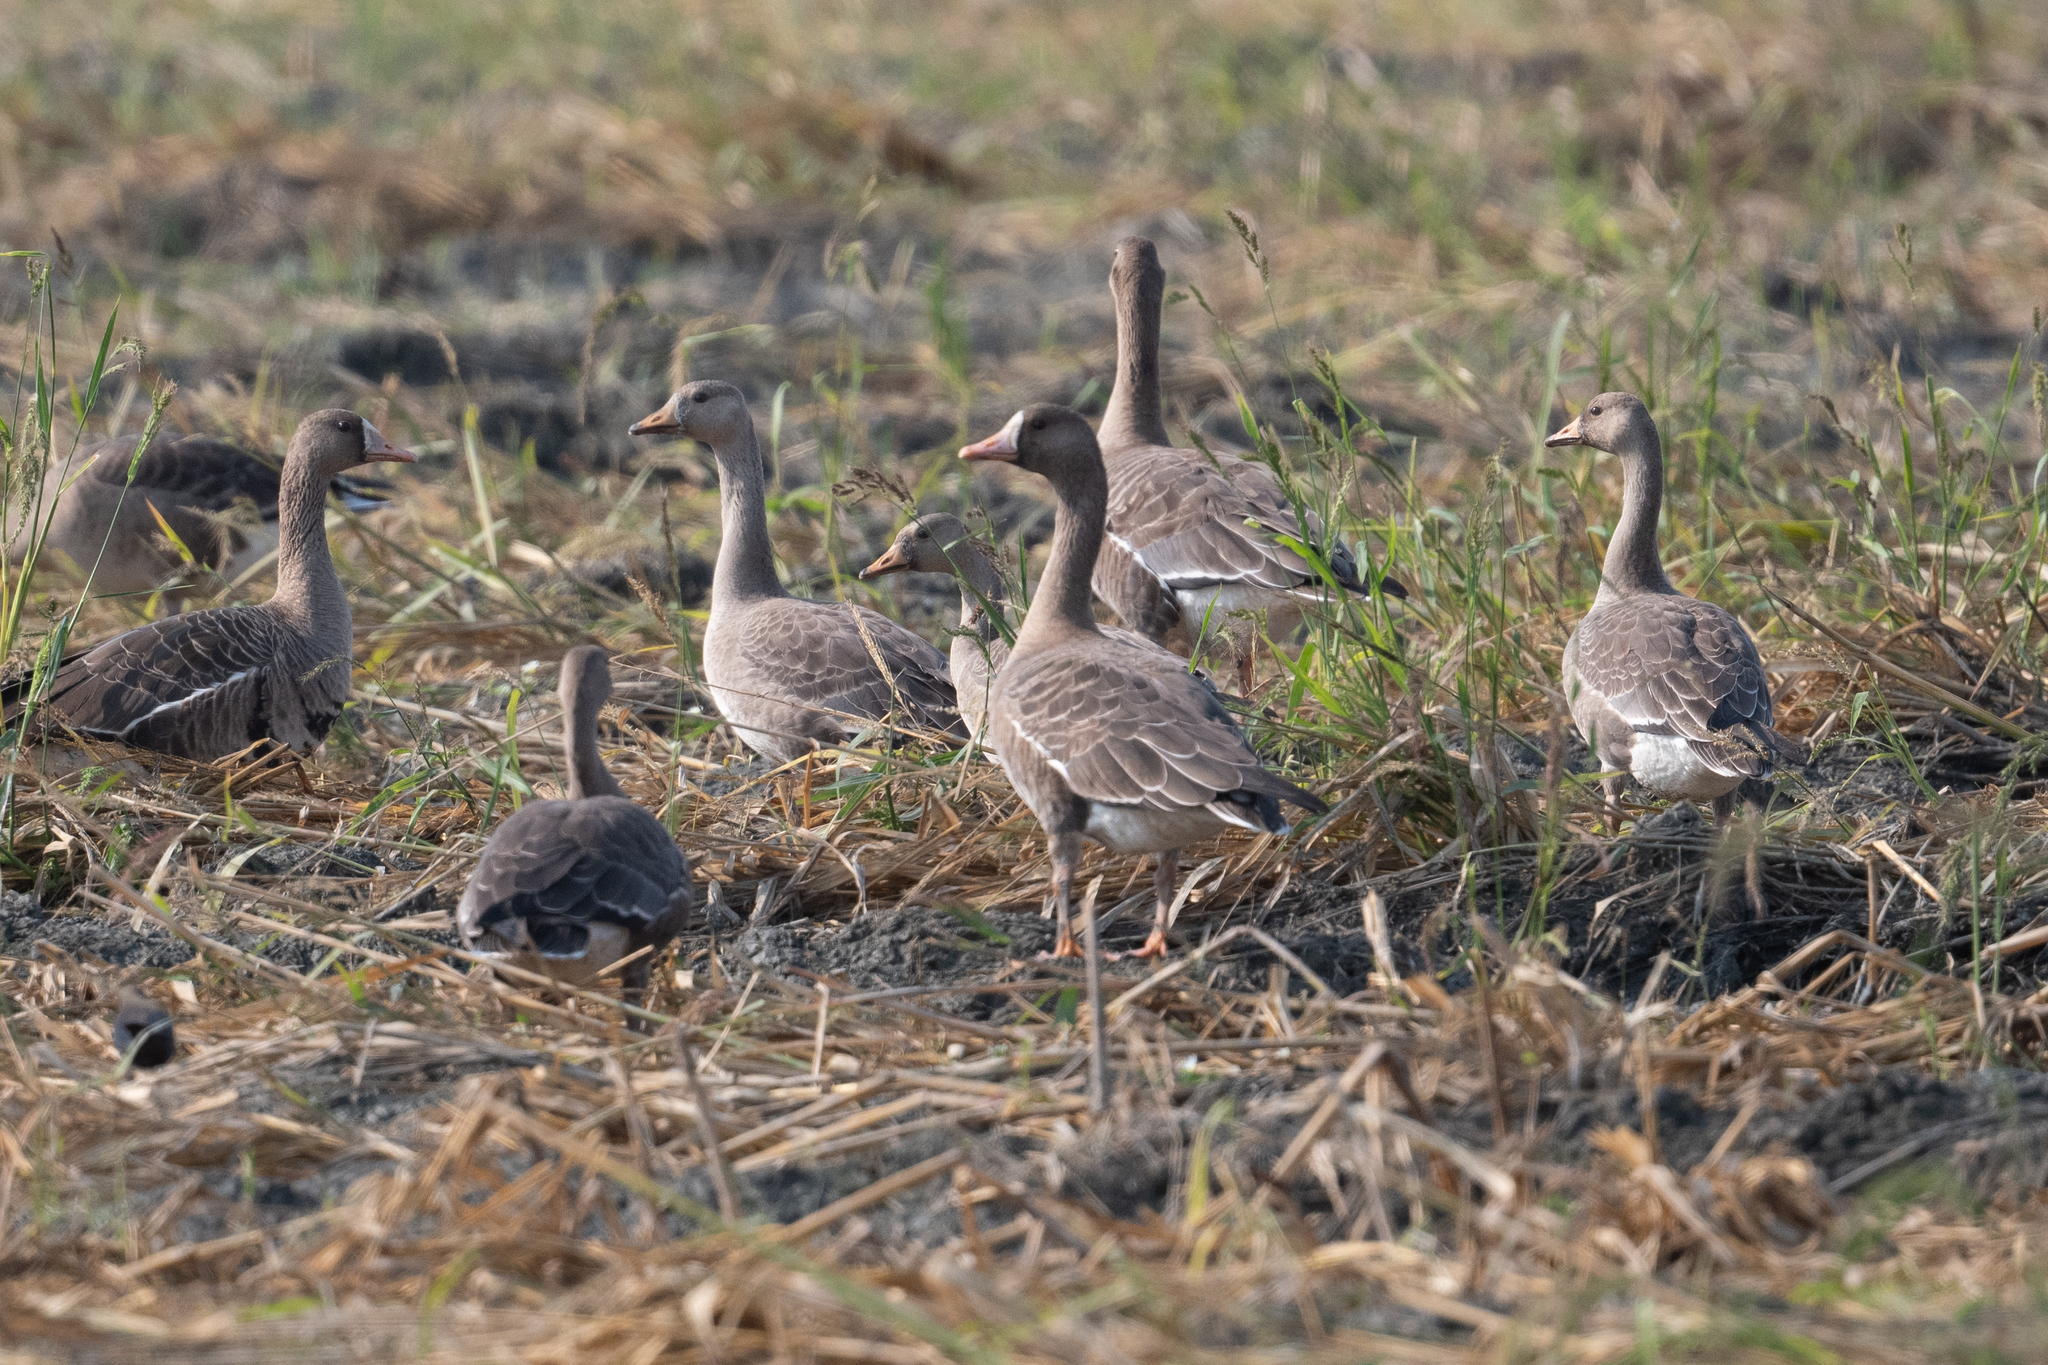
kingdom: Animalia
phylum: Chordata
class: Aves
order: Anseriformes
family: Anatidae
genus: Anser
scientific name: Anser albifrons
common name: Greater white-fronted goose
